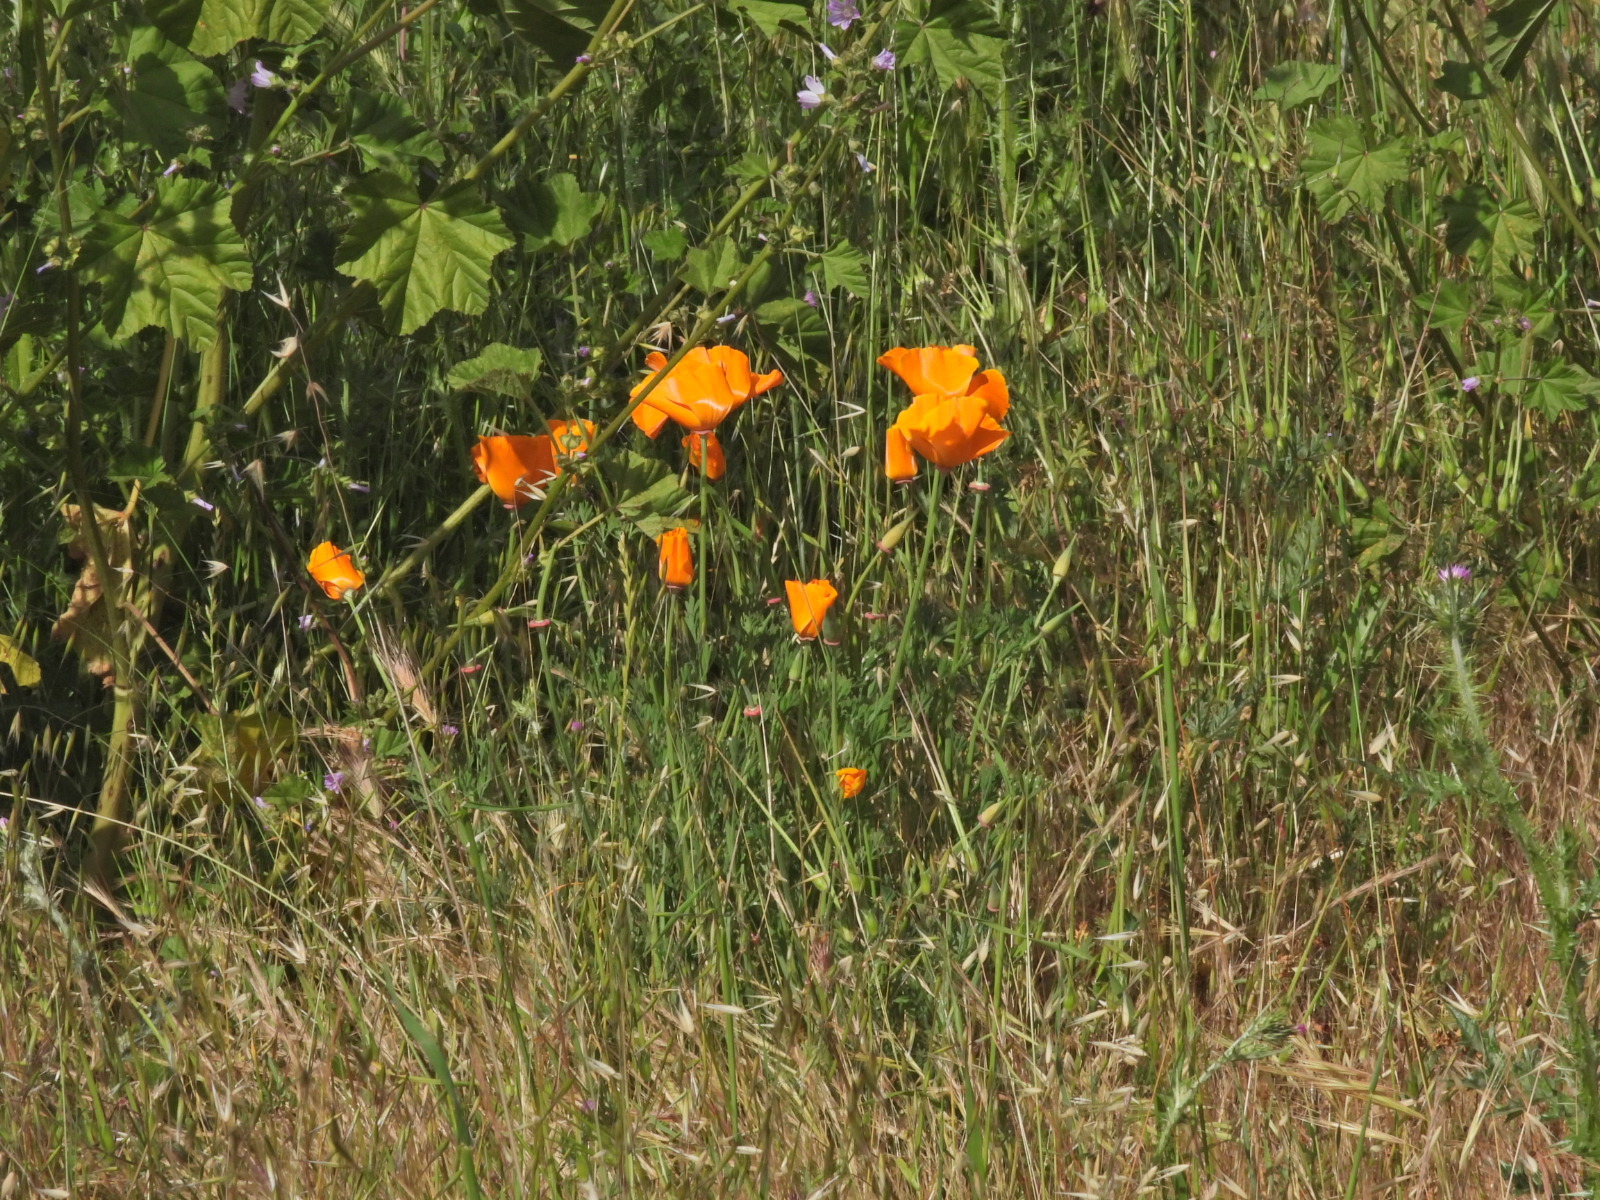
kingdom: Plantae
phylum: Tracheophyta
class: Magnoliopsida
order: Ranunculales
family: Papaveraceae
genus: Eschscholzia
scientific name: Eschscholzia californica
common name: California poppy
